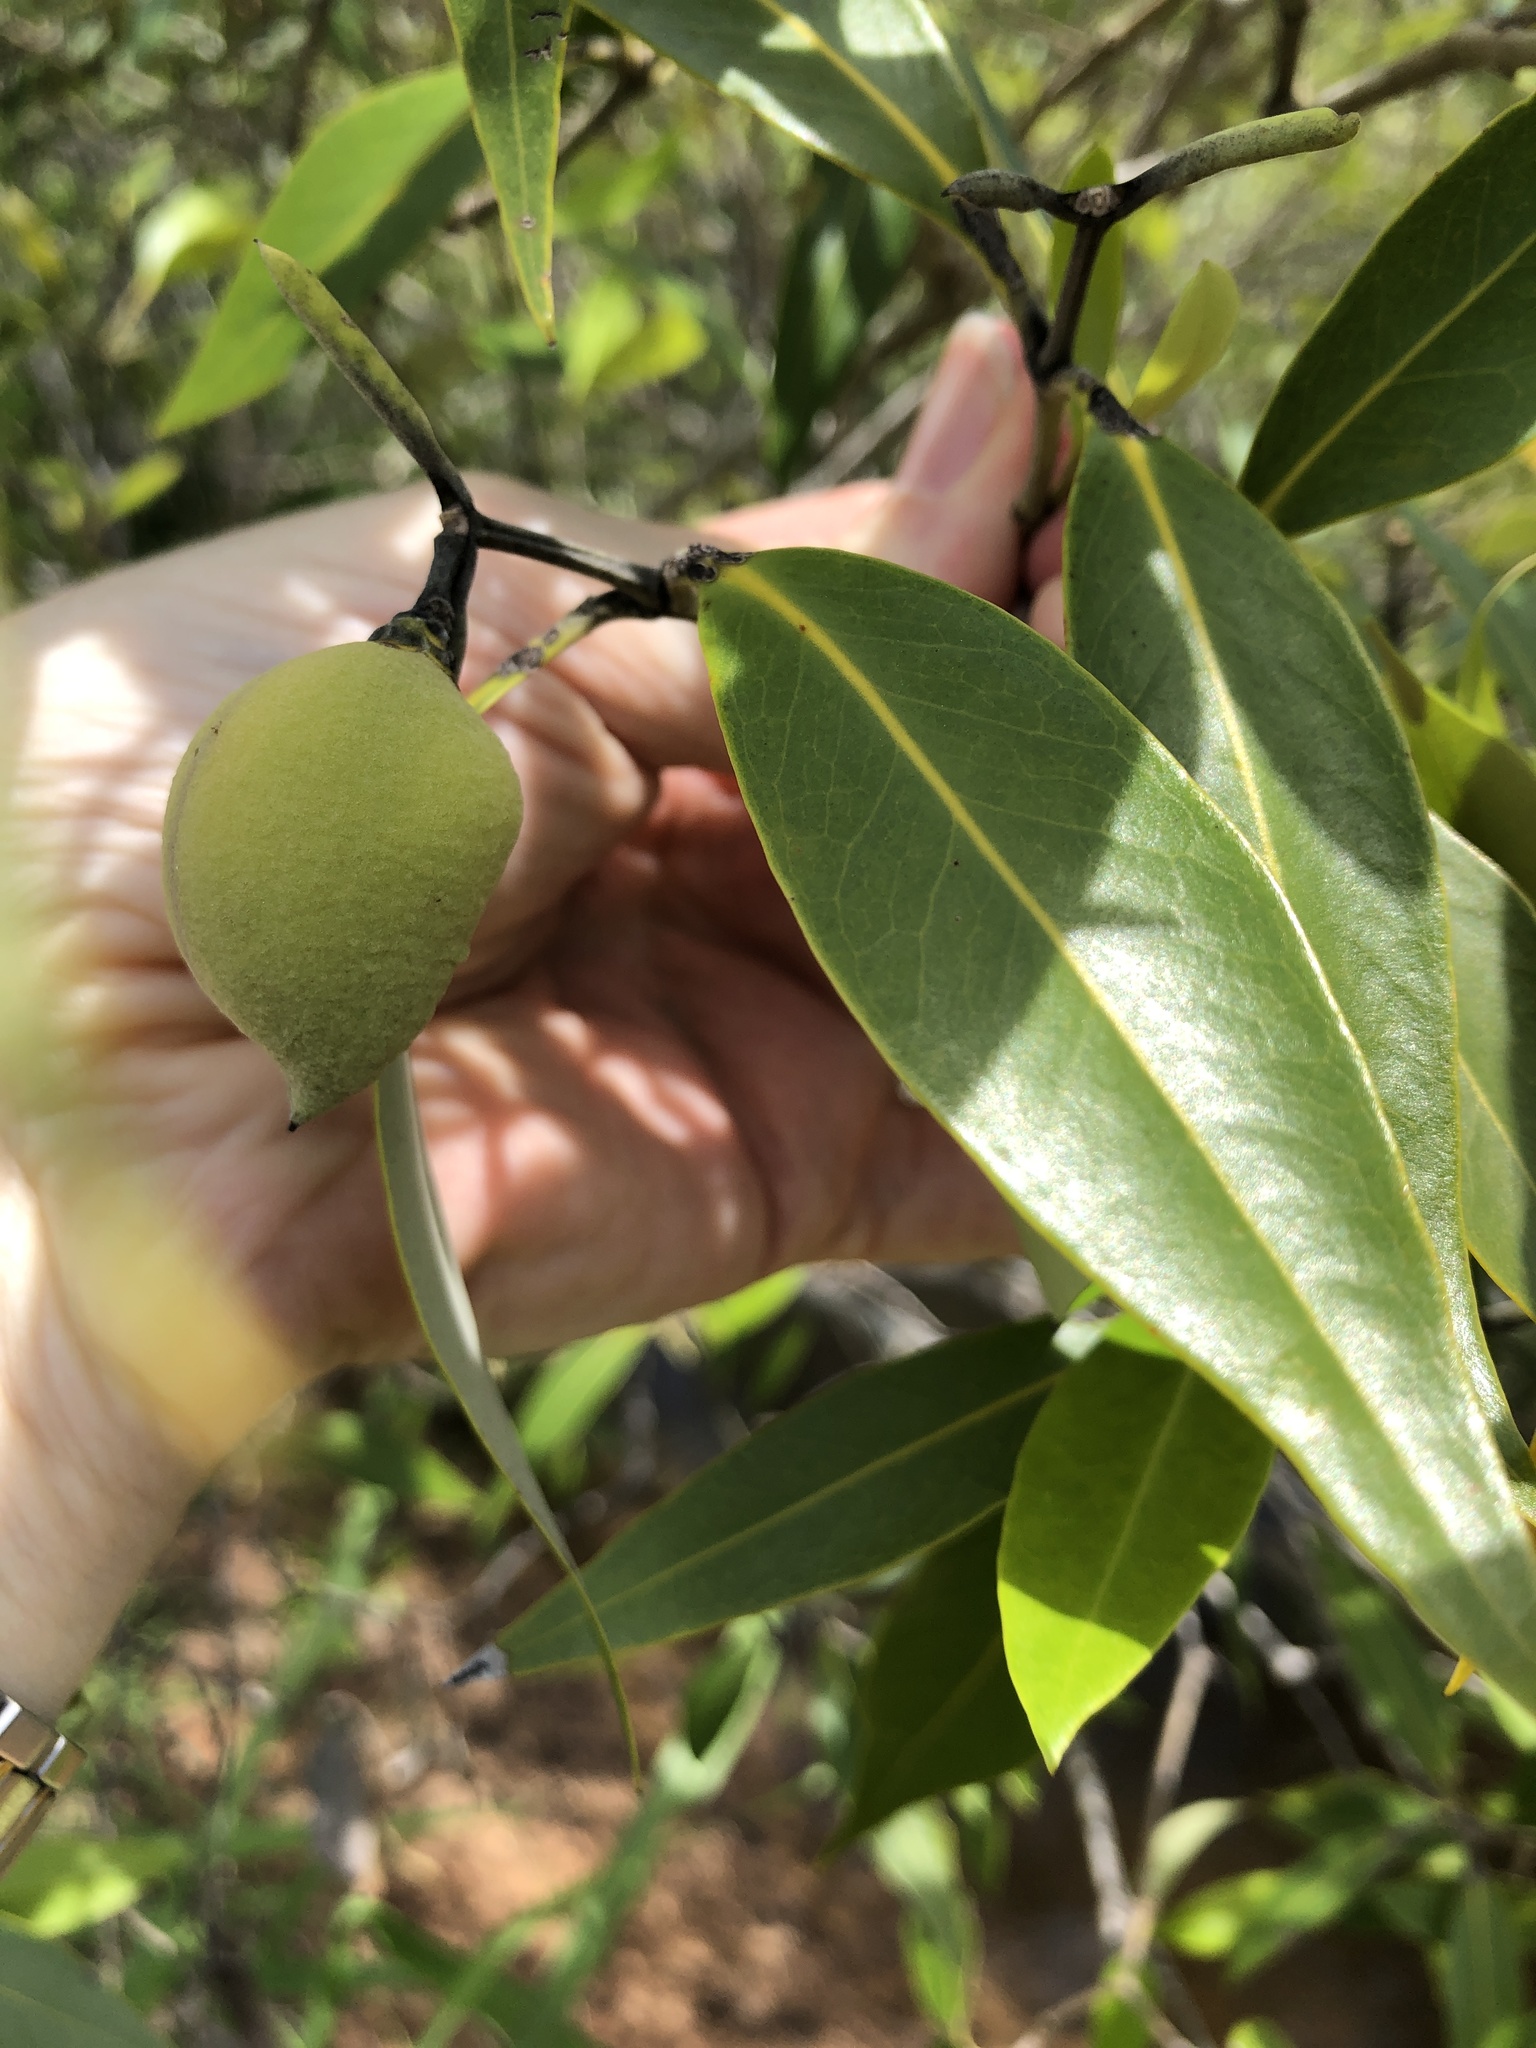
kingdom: Plantae
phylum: Tracheophyta
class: Magnoliopsida
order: Lamiales
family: Acanthaceae
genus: Avicennia
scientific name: Avicennia marina
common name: Gray mangrove
